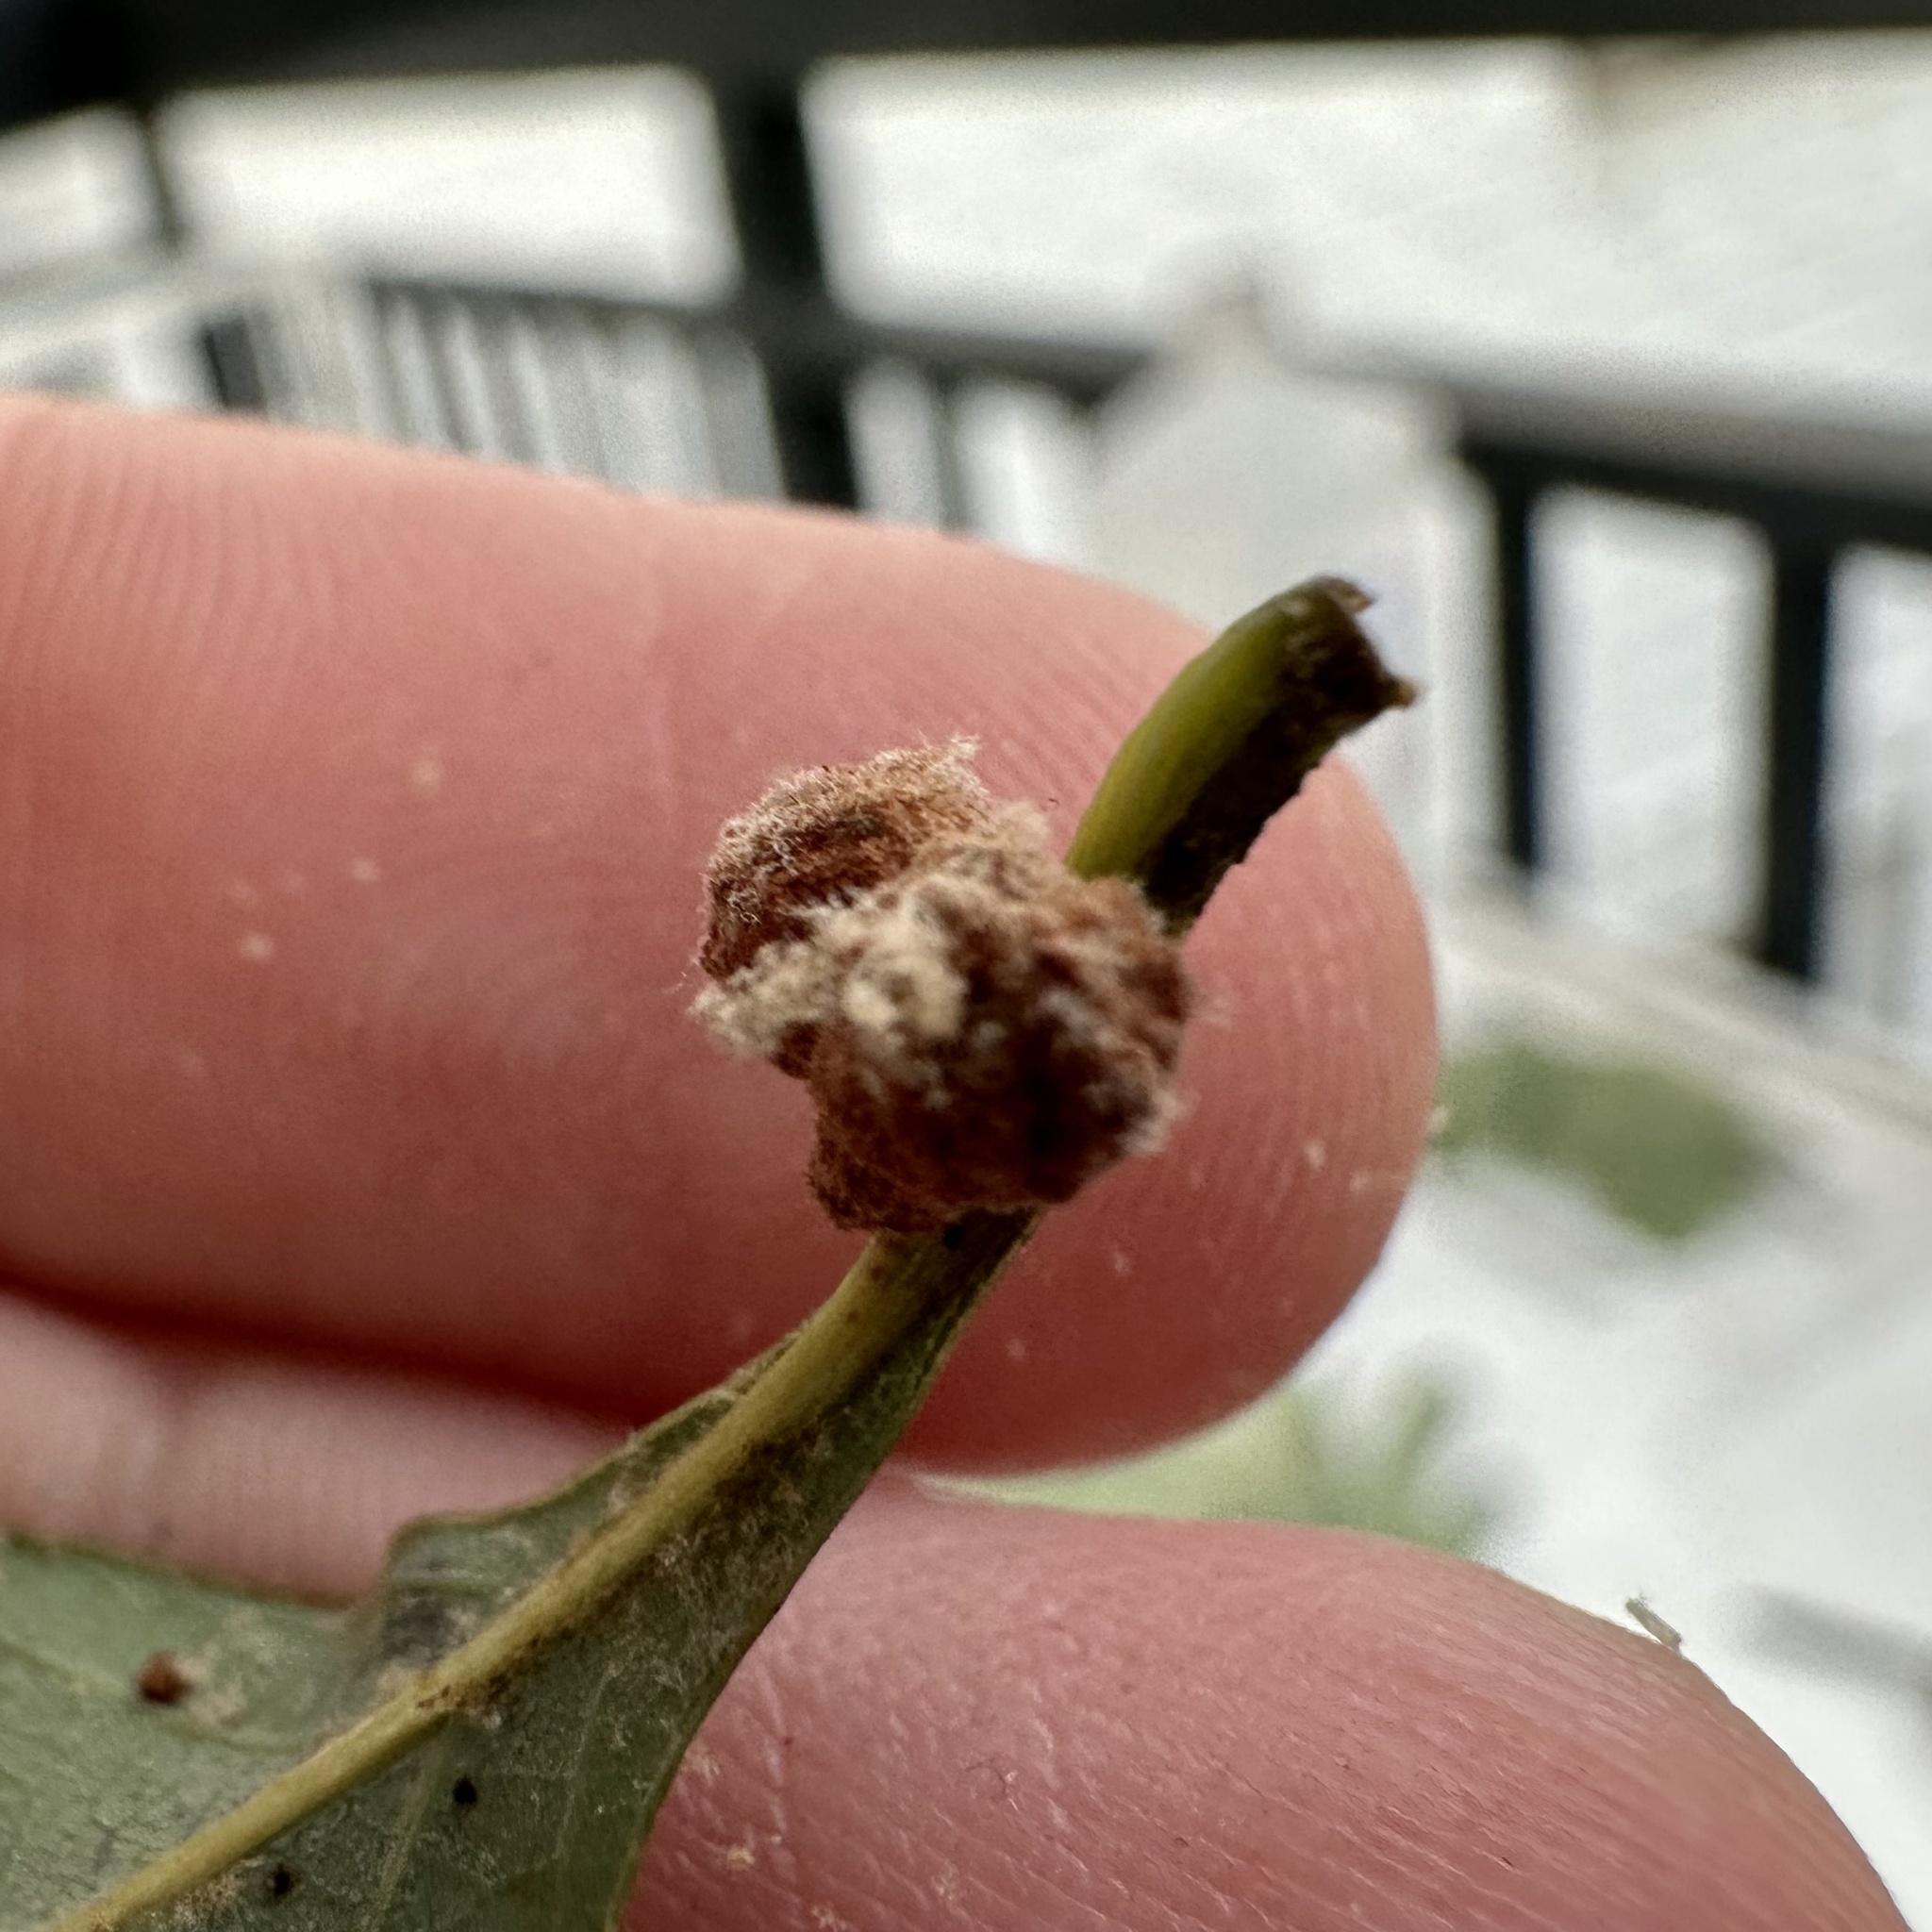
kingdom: Animalia
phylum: Arthropoda
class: Insecta
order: Hymenoptera
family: Cynipidae
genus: Andricus
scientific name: Andricus
